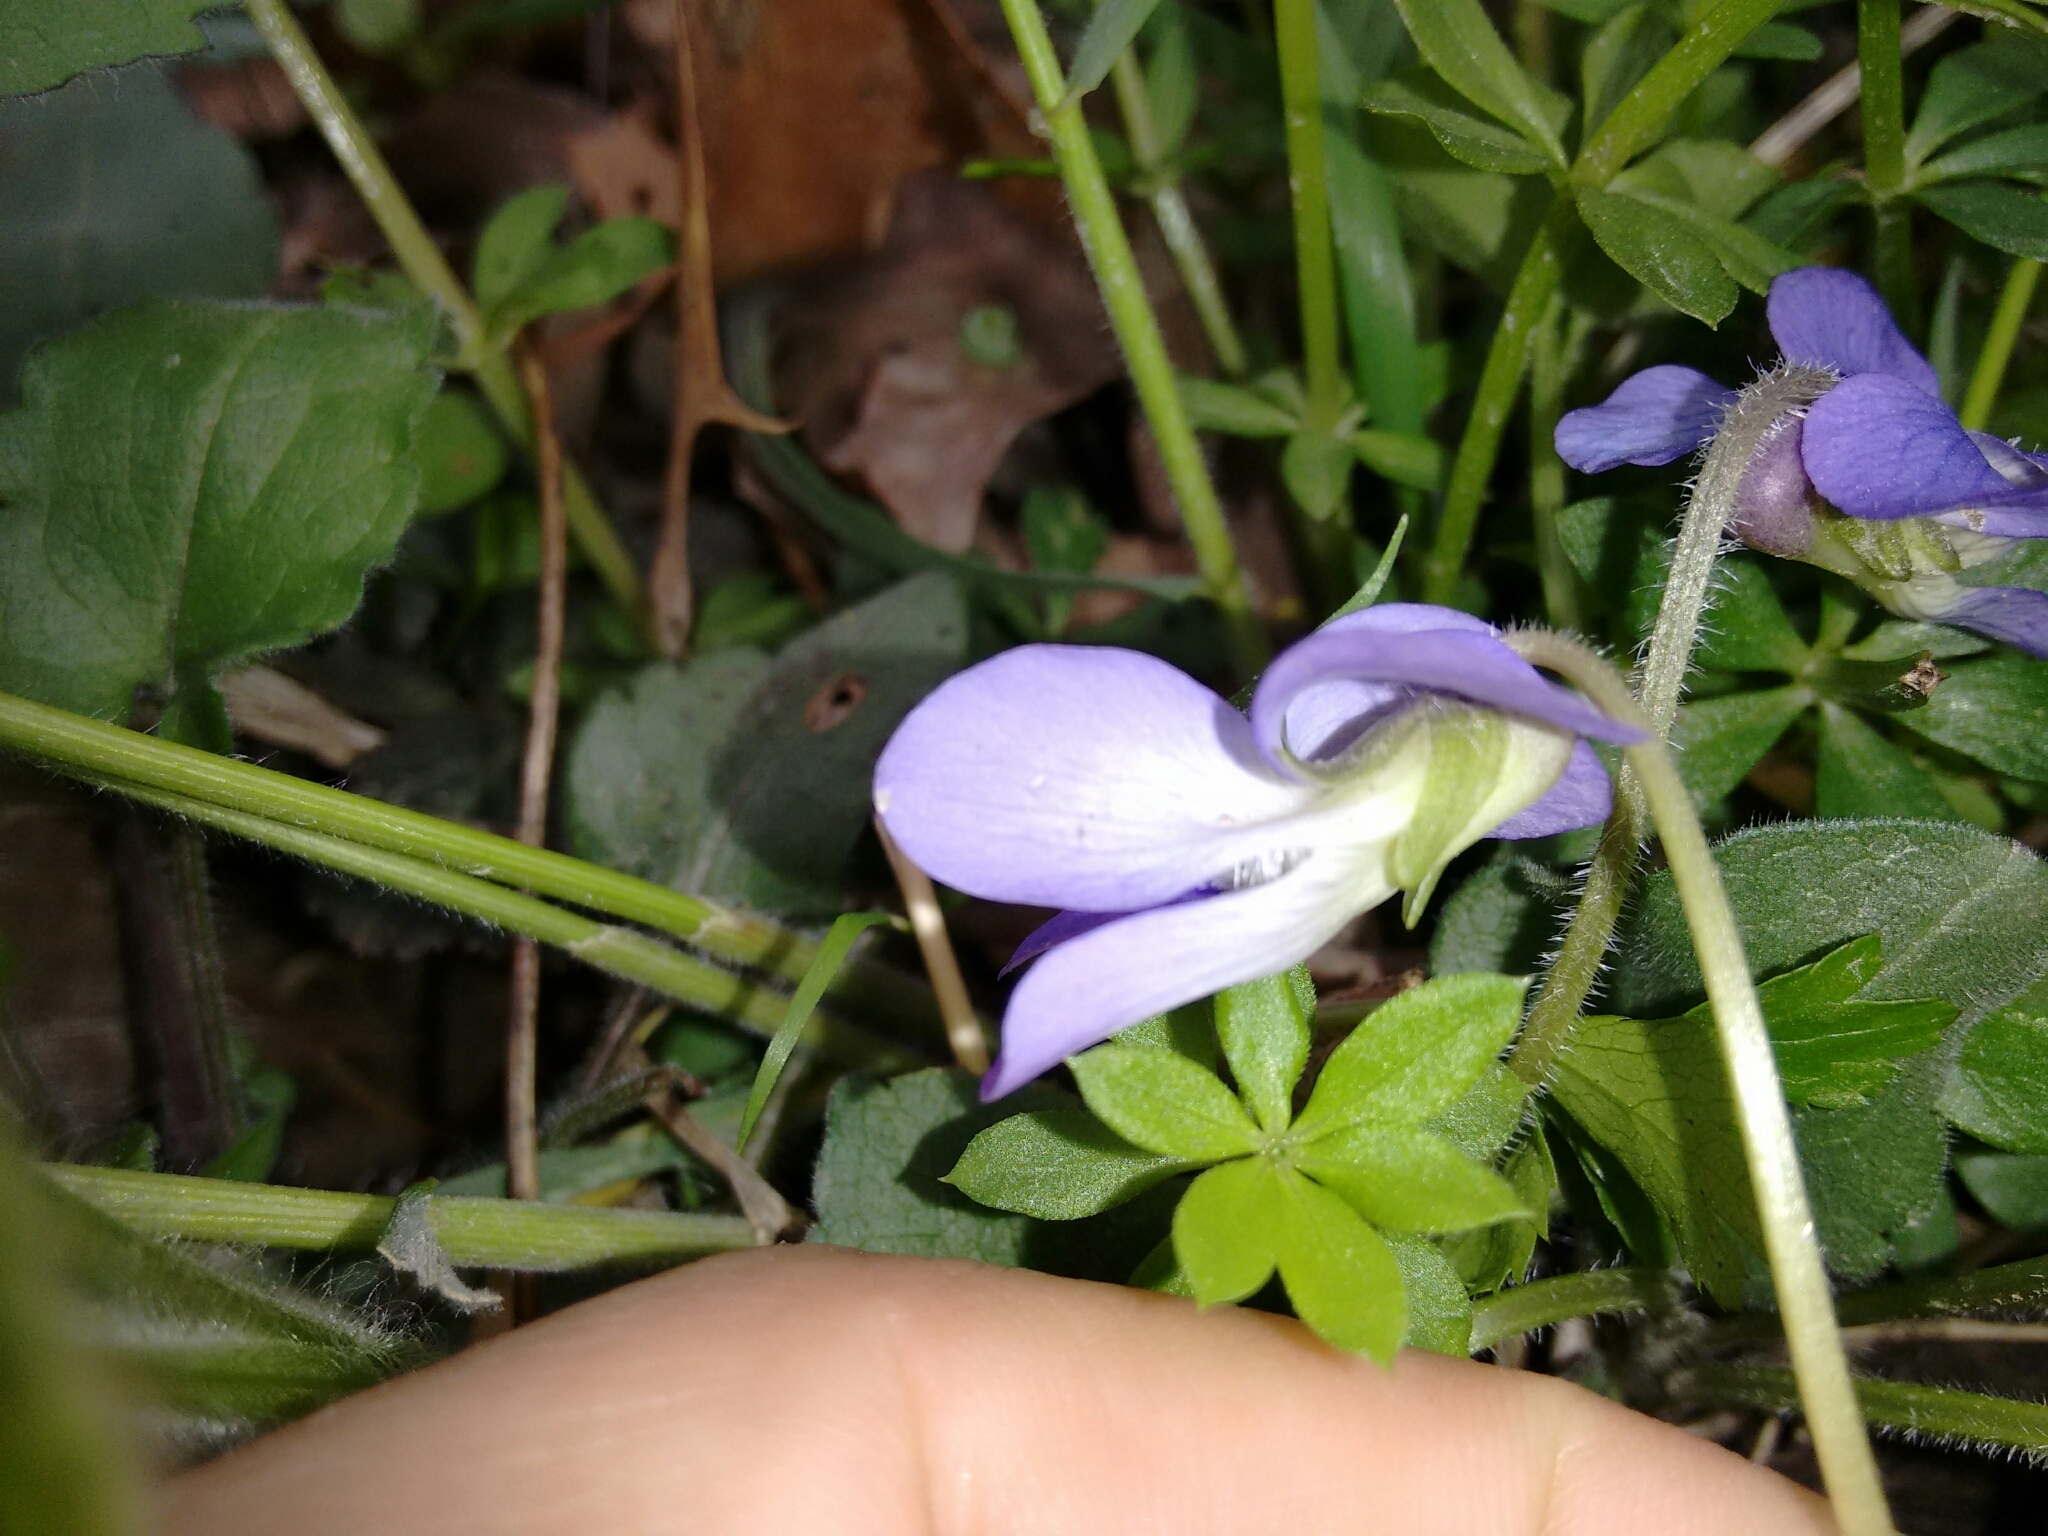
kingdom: Plantae
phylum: Tracheophyta
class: Magnoliopsida
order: Malpighiales
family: Violaceae
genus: Viola
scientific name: Viola sororia
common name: Dooryard violet
